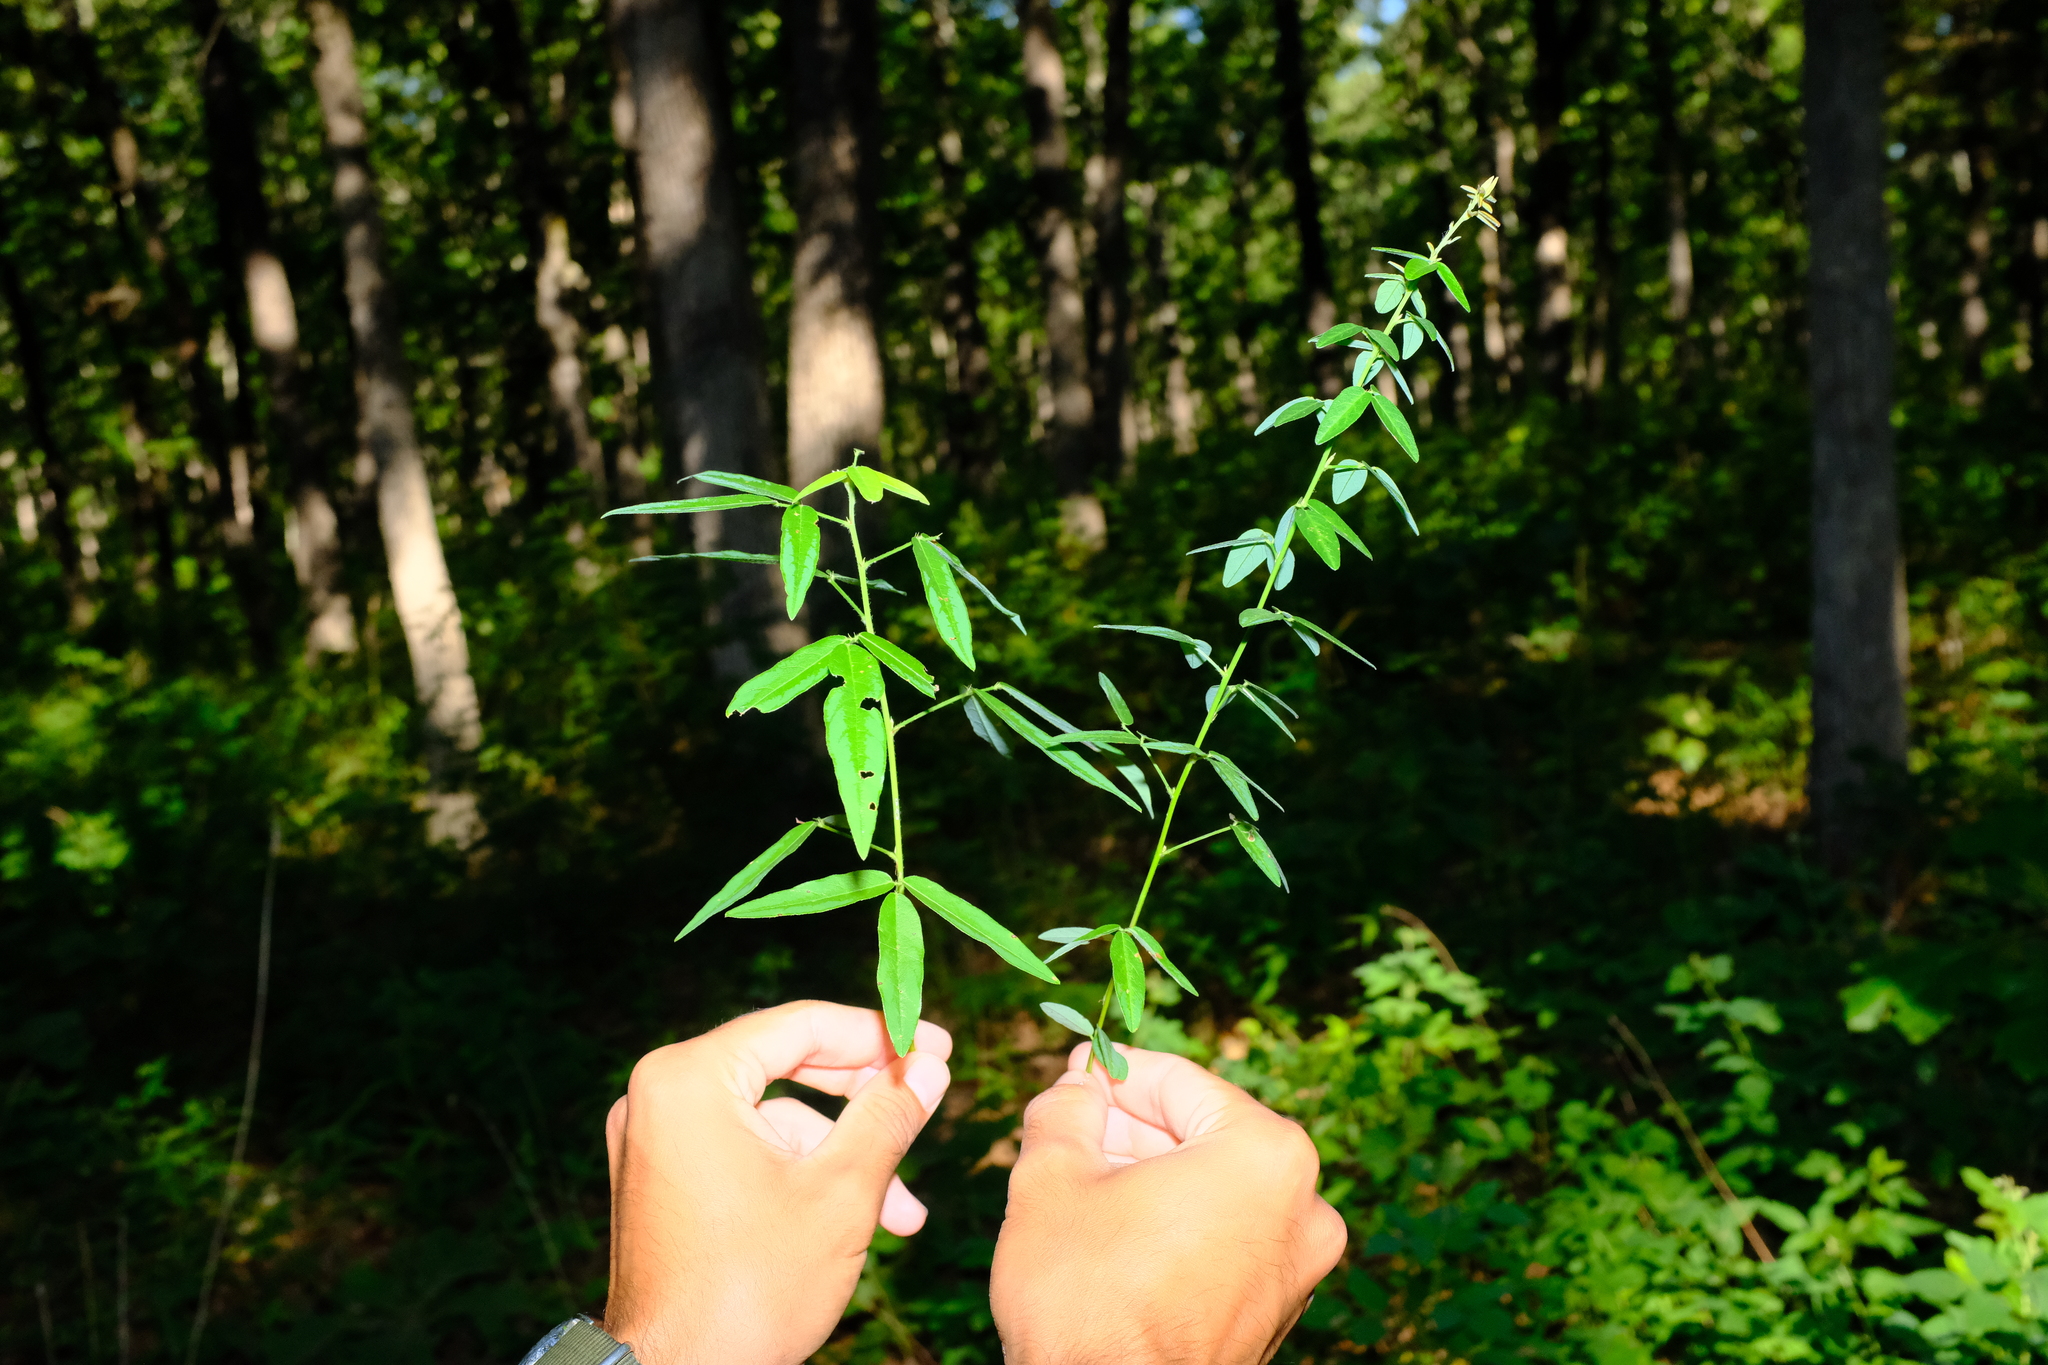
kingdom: Plantae
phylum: Tracheophyta
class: Magnoliopsida
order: Fabales
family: Fabaceae
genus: Desmodium
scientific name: Desmodium paniculatum
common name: Panicled tick-clover
